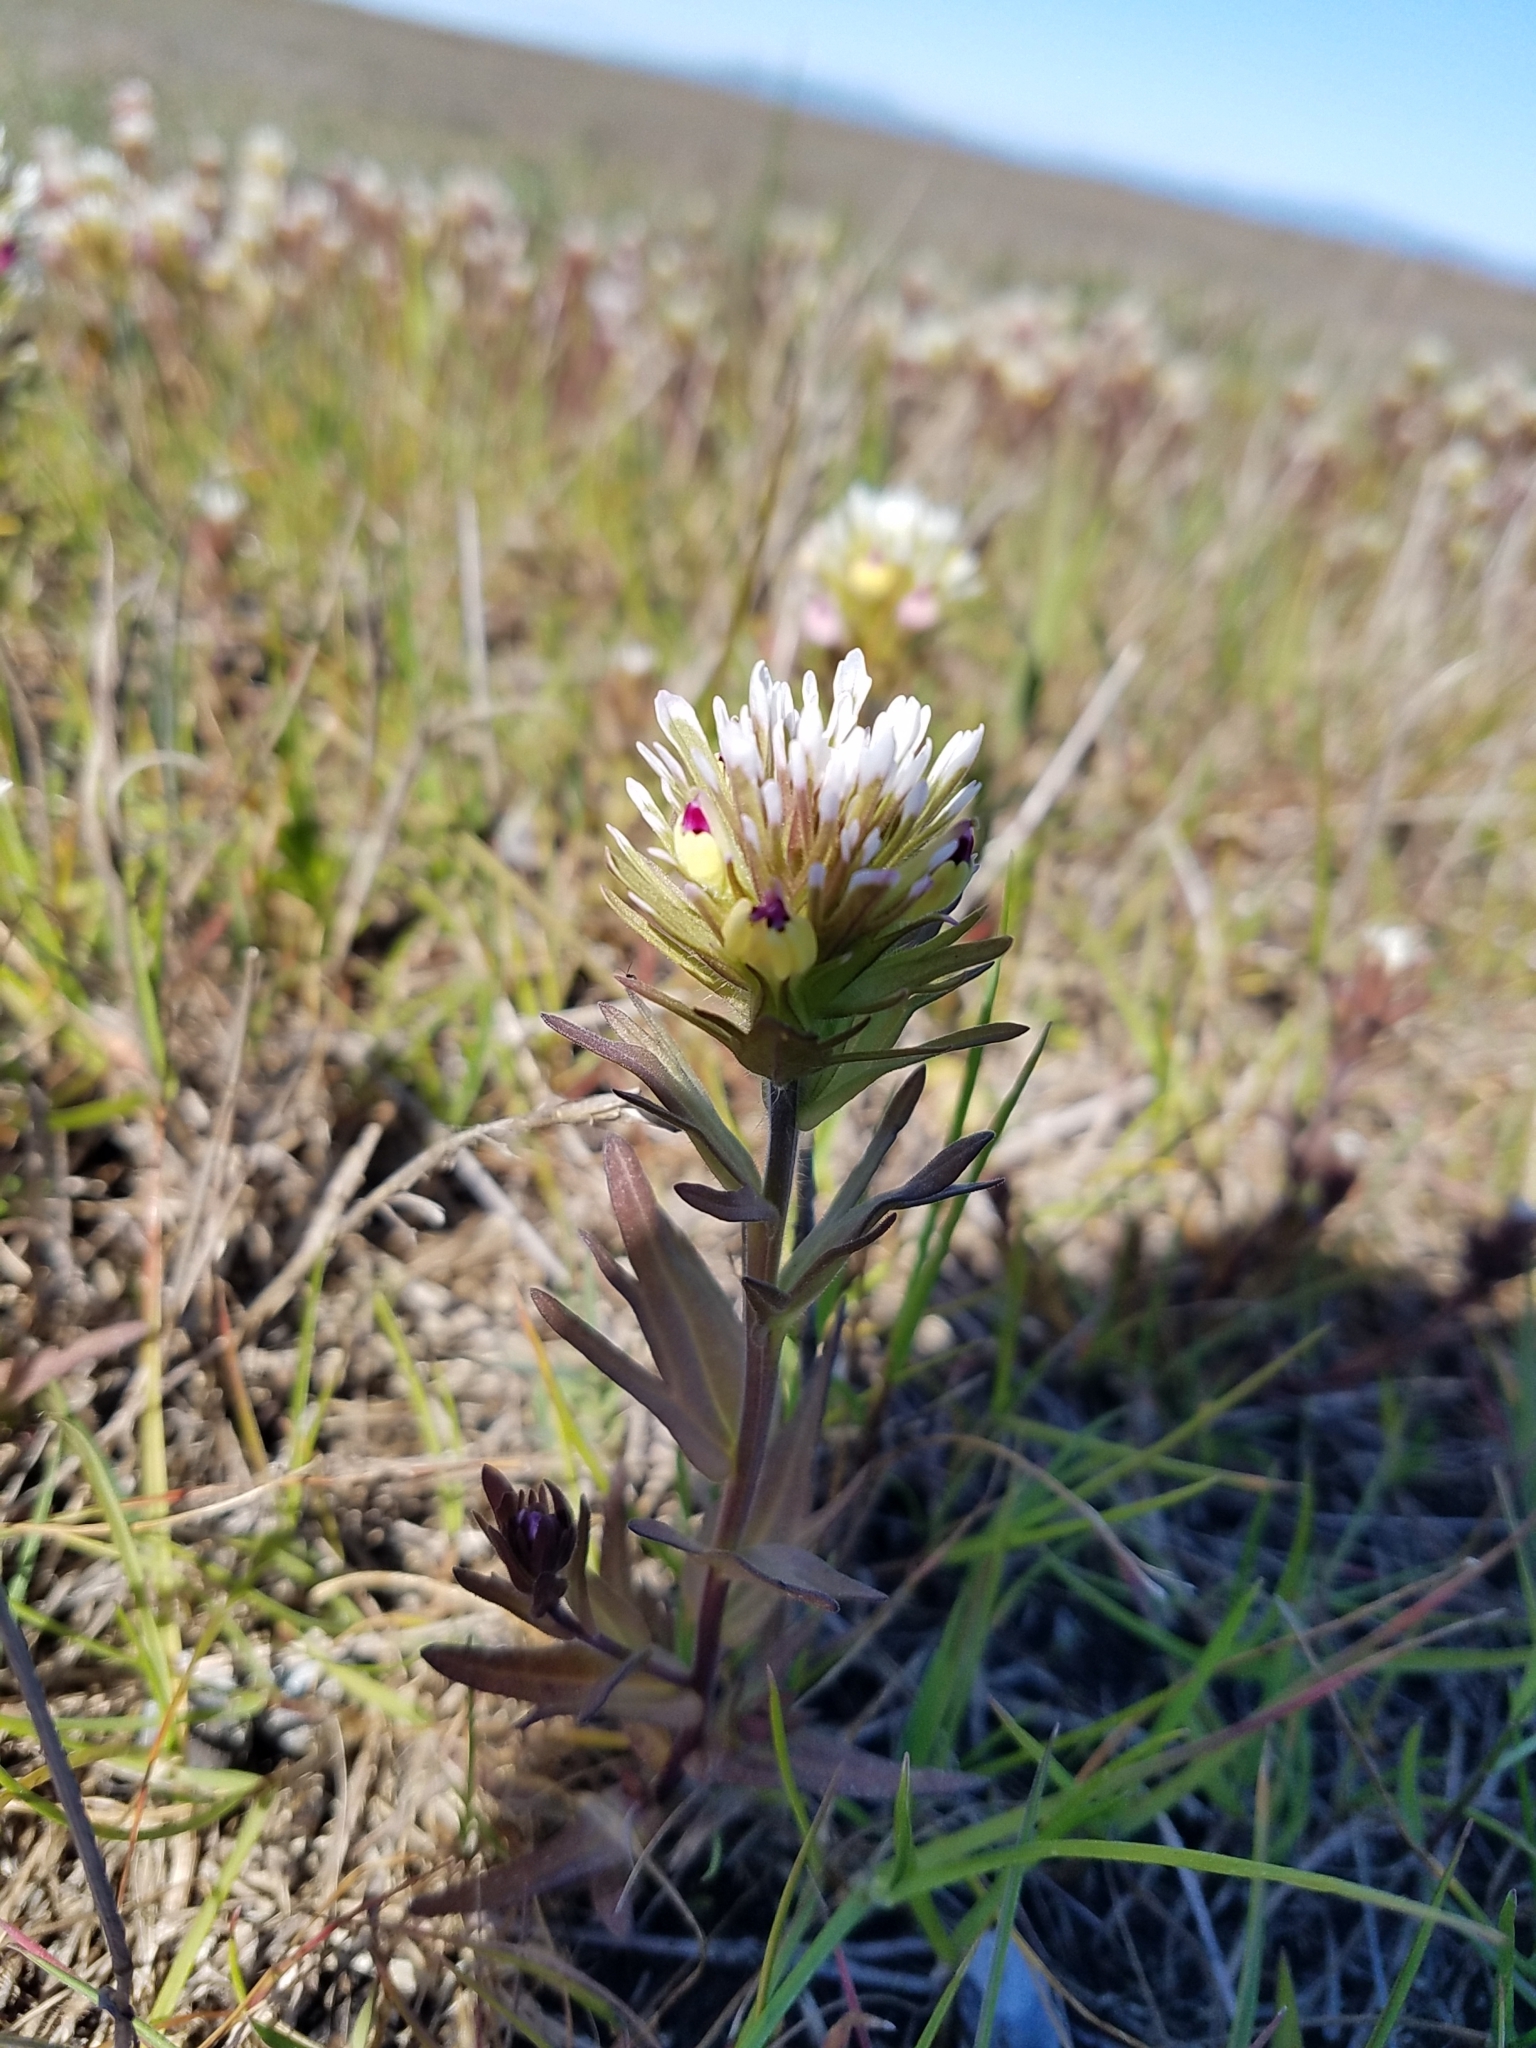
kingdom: Plantae
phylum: Tracheophyta
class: Magnoliopsida
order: Lamiales
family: Orobanchaceae
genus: Castilleja
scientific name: Castilleja ambigua
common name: Johnny-nip
